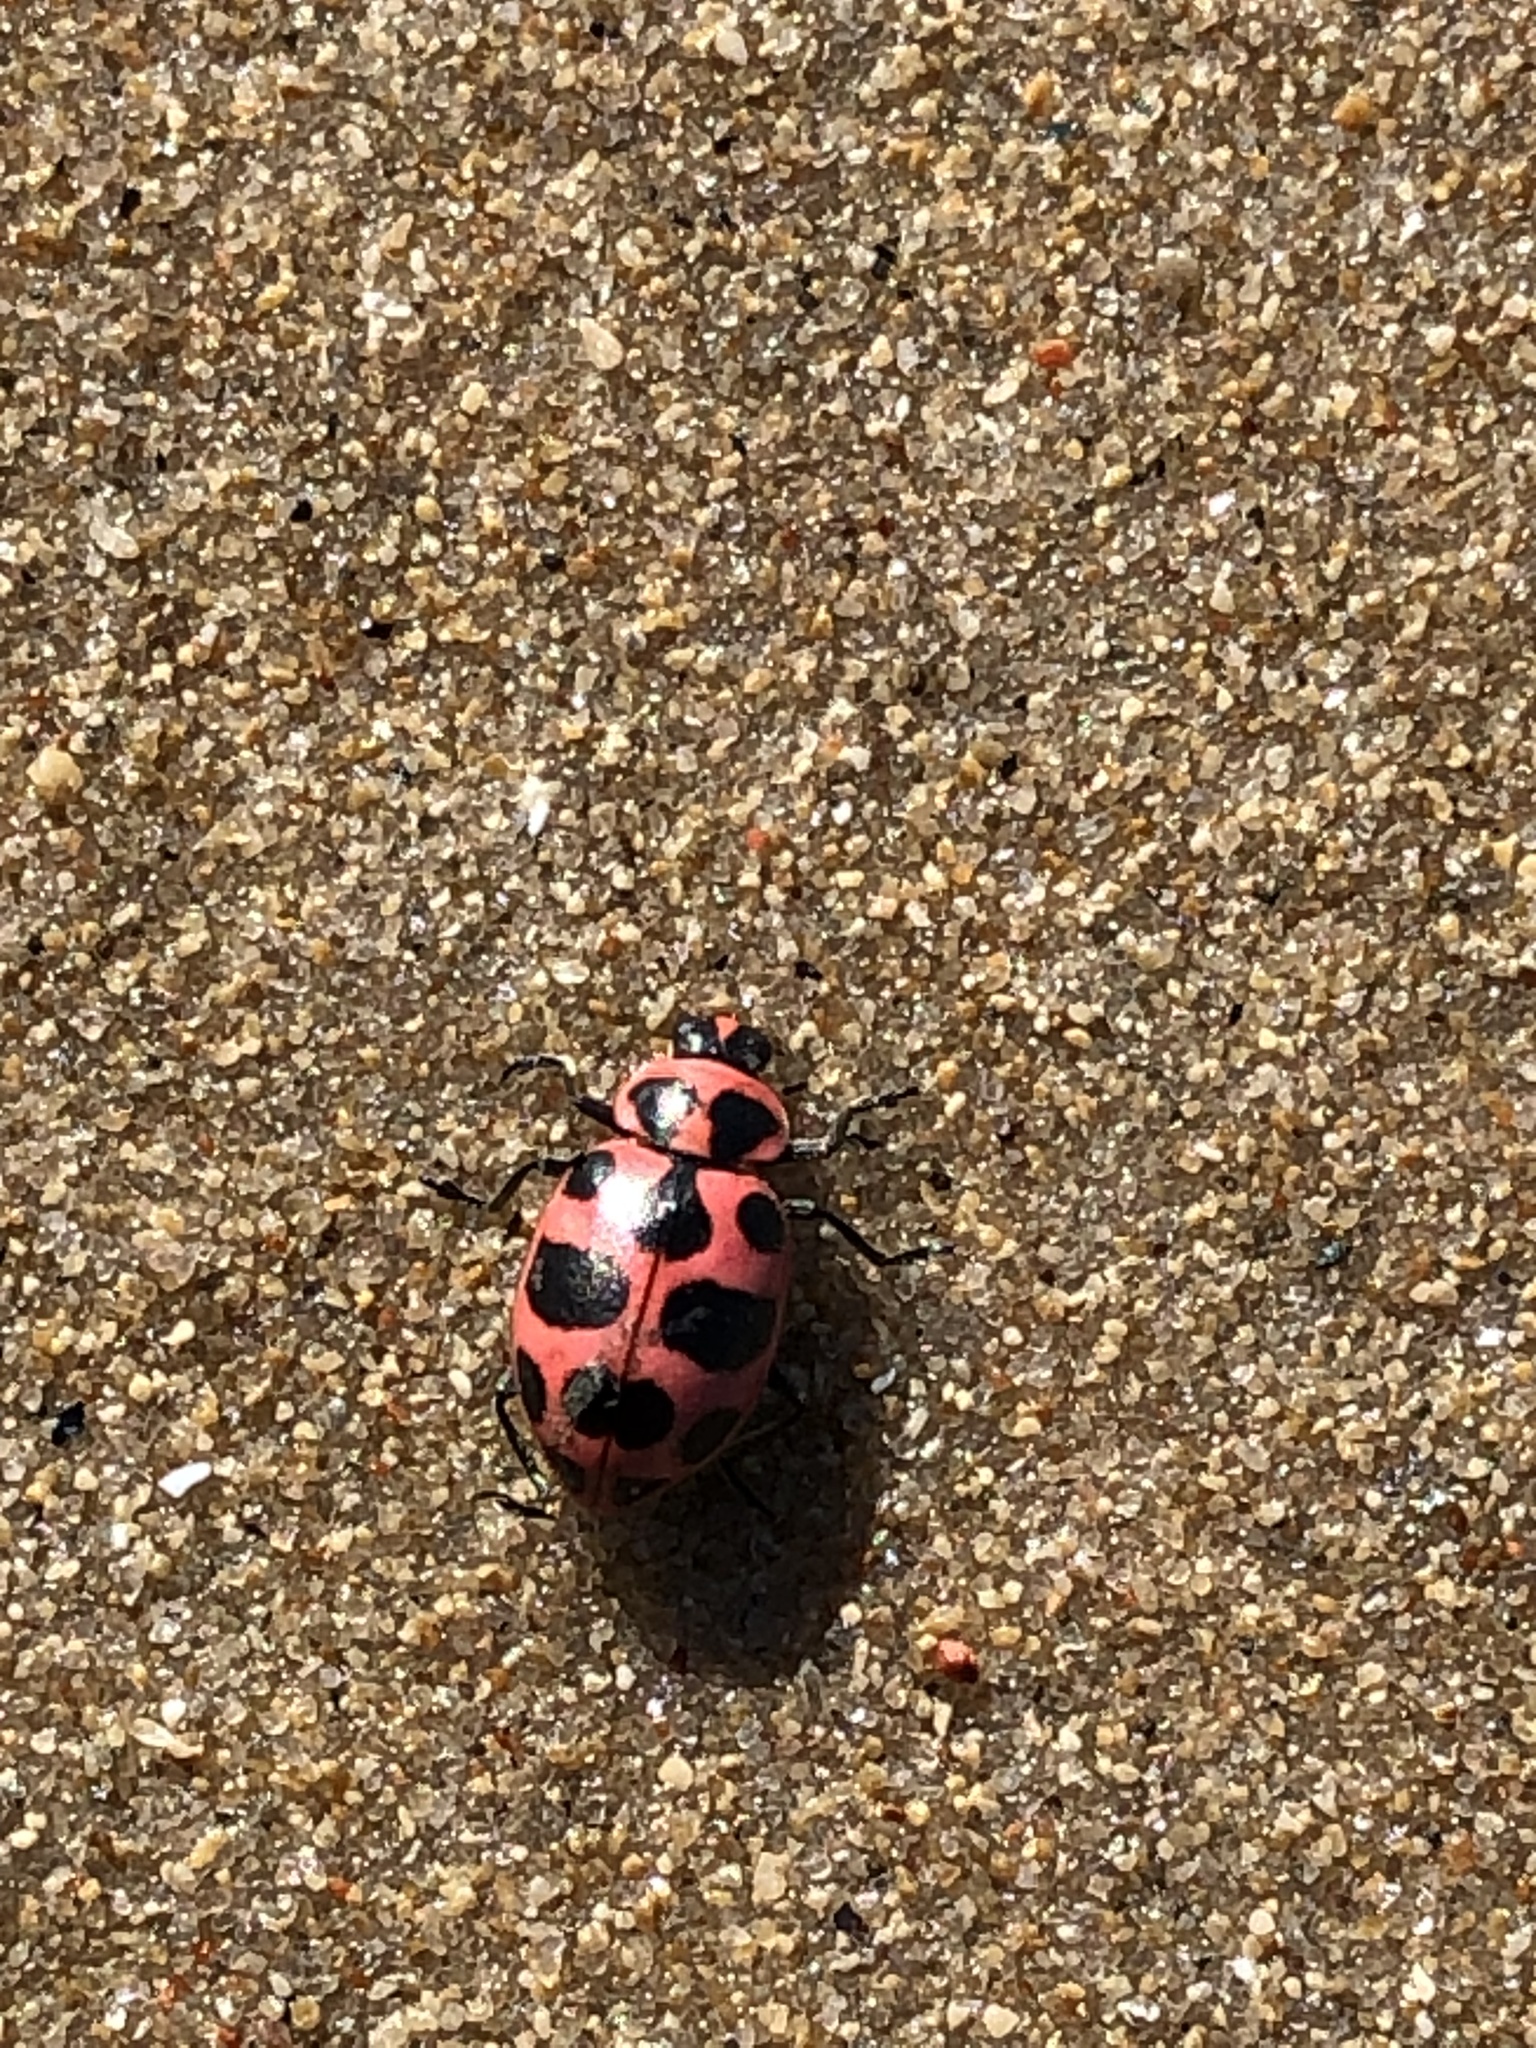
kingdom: Animalia
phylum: Arthropoda
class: Insecta
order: Coleoptera
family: Coccinellidae
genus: Coleomegilla
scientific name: Coleomegilla maculata
